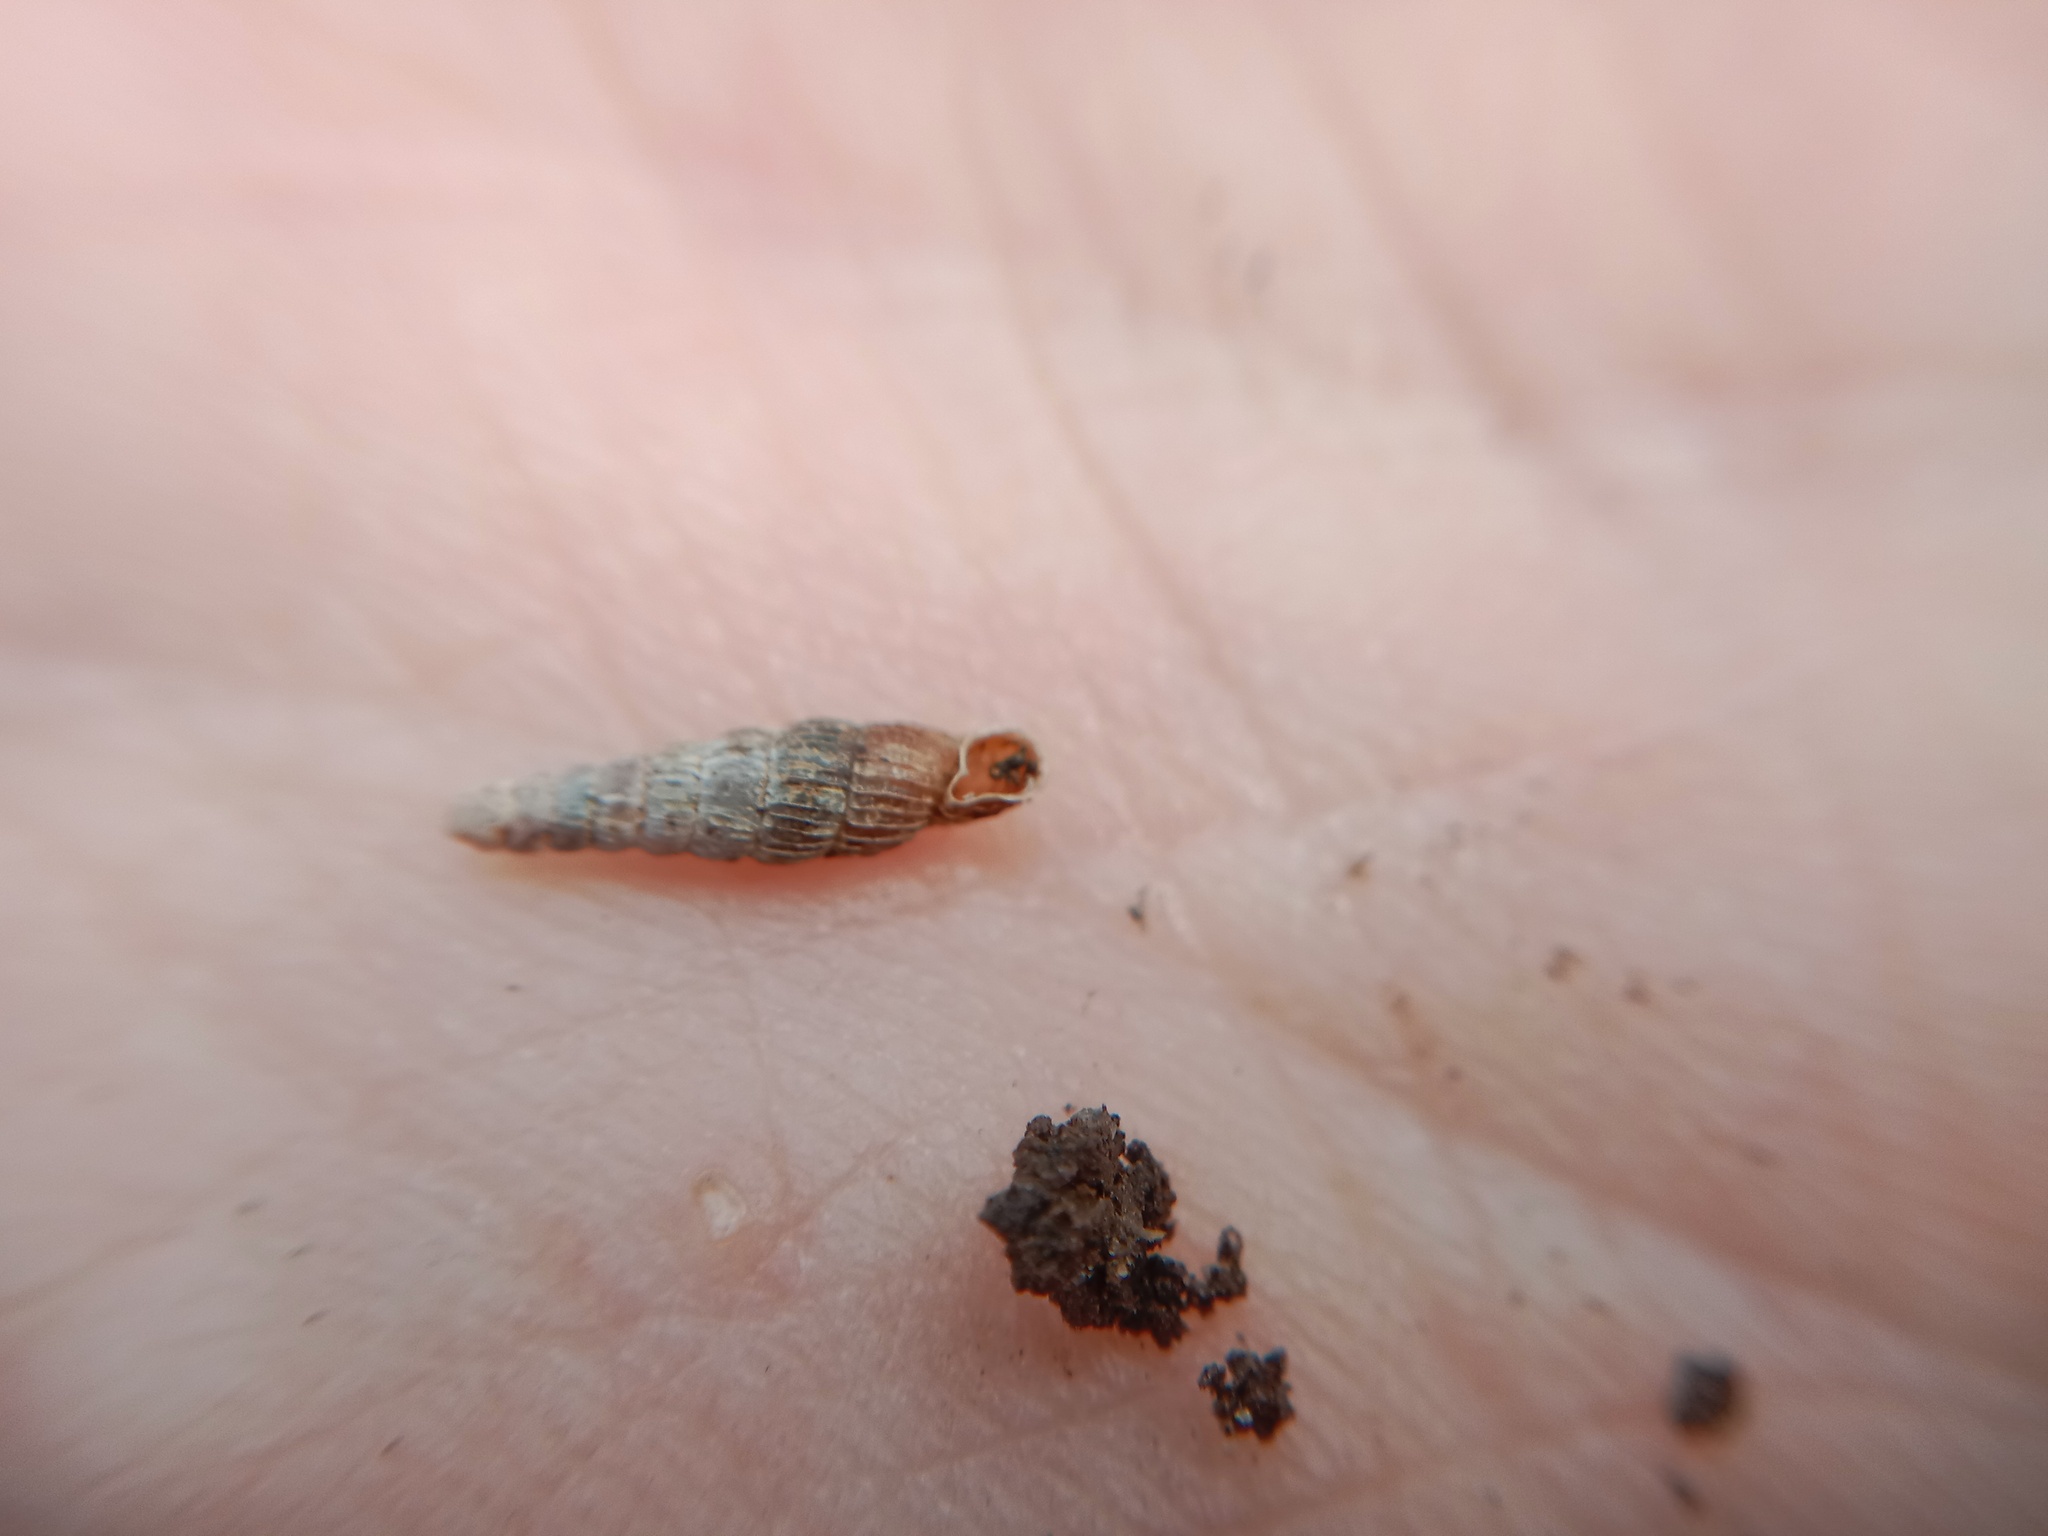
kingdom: Animalia
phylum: Mollusca
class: Gastropoda
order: Stylommatophora
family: Clausiliidae
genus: Ruthenica
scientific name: Ruthenica filograna
